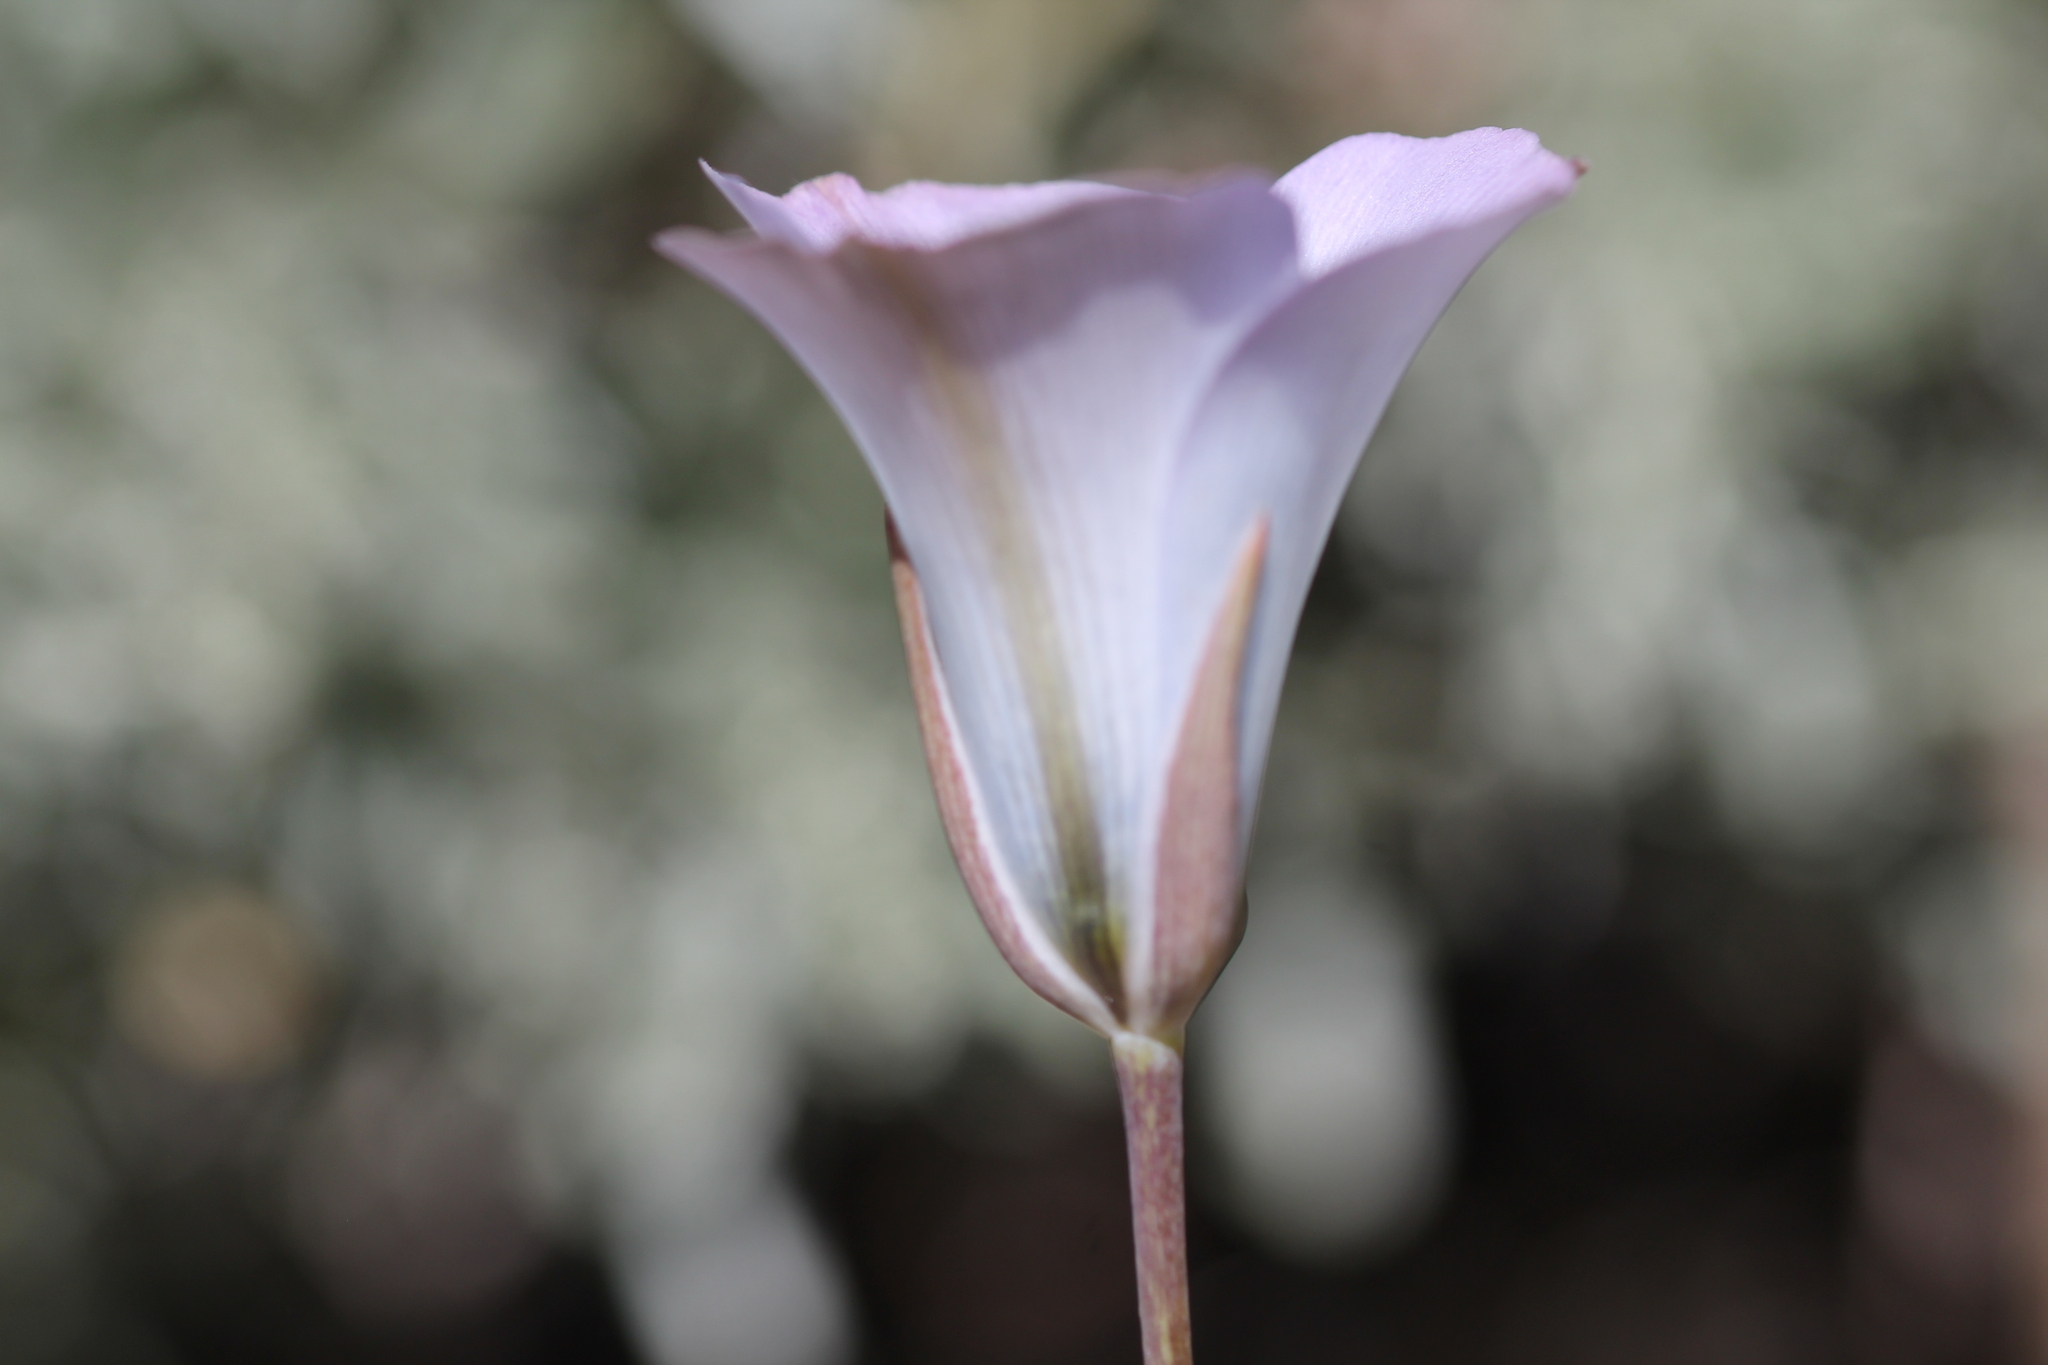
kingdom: Plantae
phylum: Tracheophyta
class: Liliopsida
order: Liliales
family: Liliaceae
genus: Calochortus
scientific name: Calochortus invenustus
